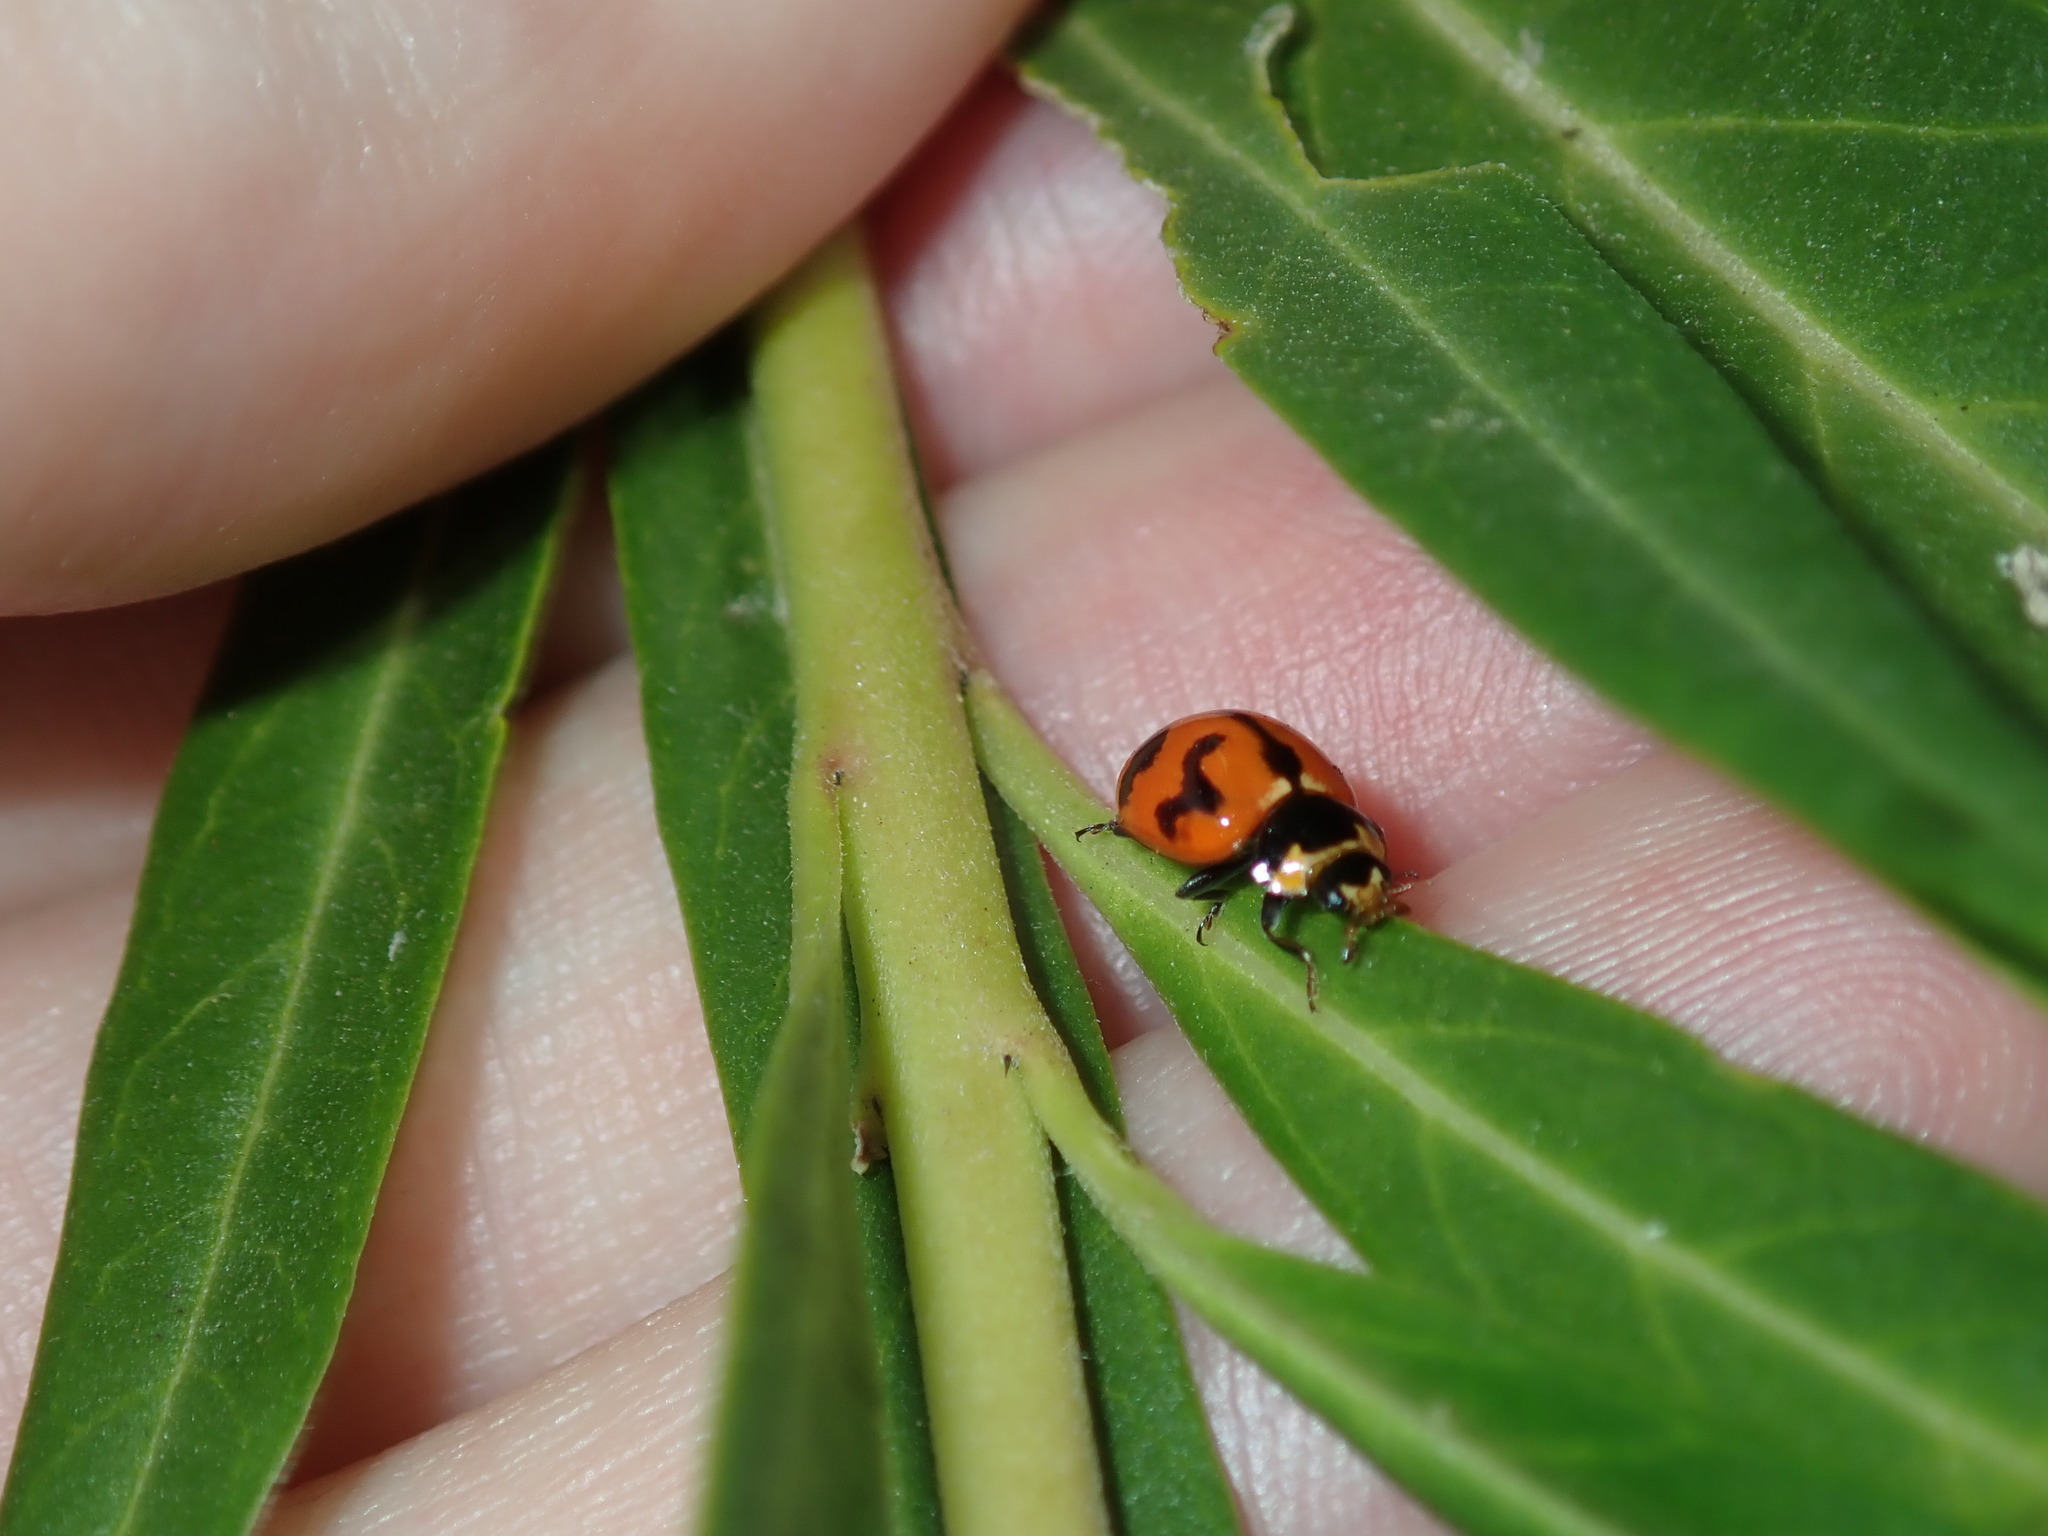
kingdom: Animalia
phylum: Arthropoda
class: Insecta
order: Coleoptera
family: Coccinellidae
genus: Coccinella
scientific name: Coccinella transversalis
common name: Transverse lady beetle
